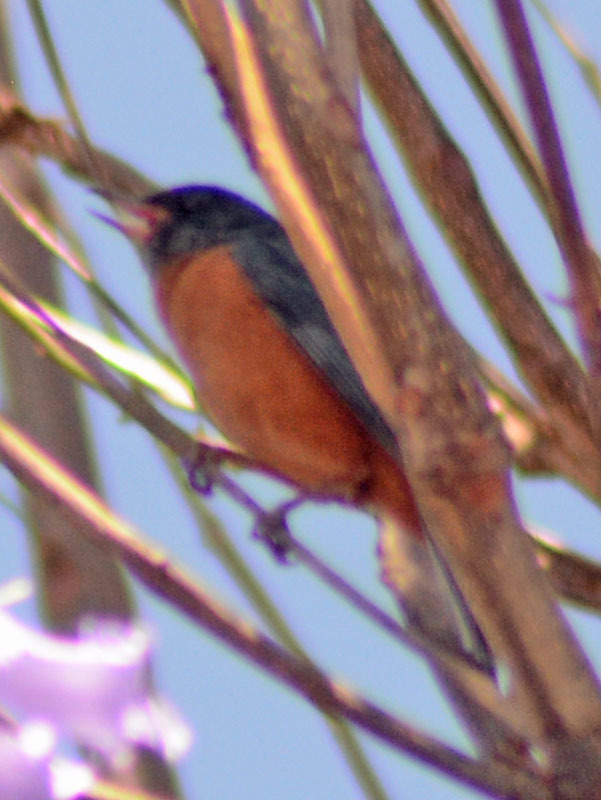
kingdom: Animalia
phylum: Chordata
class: Aves
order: Passeriformes
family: Thraupidae
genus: Diglossa
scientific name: Diglossa baritula
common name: Cinnamon-bellied flowerpiercer
